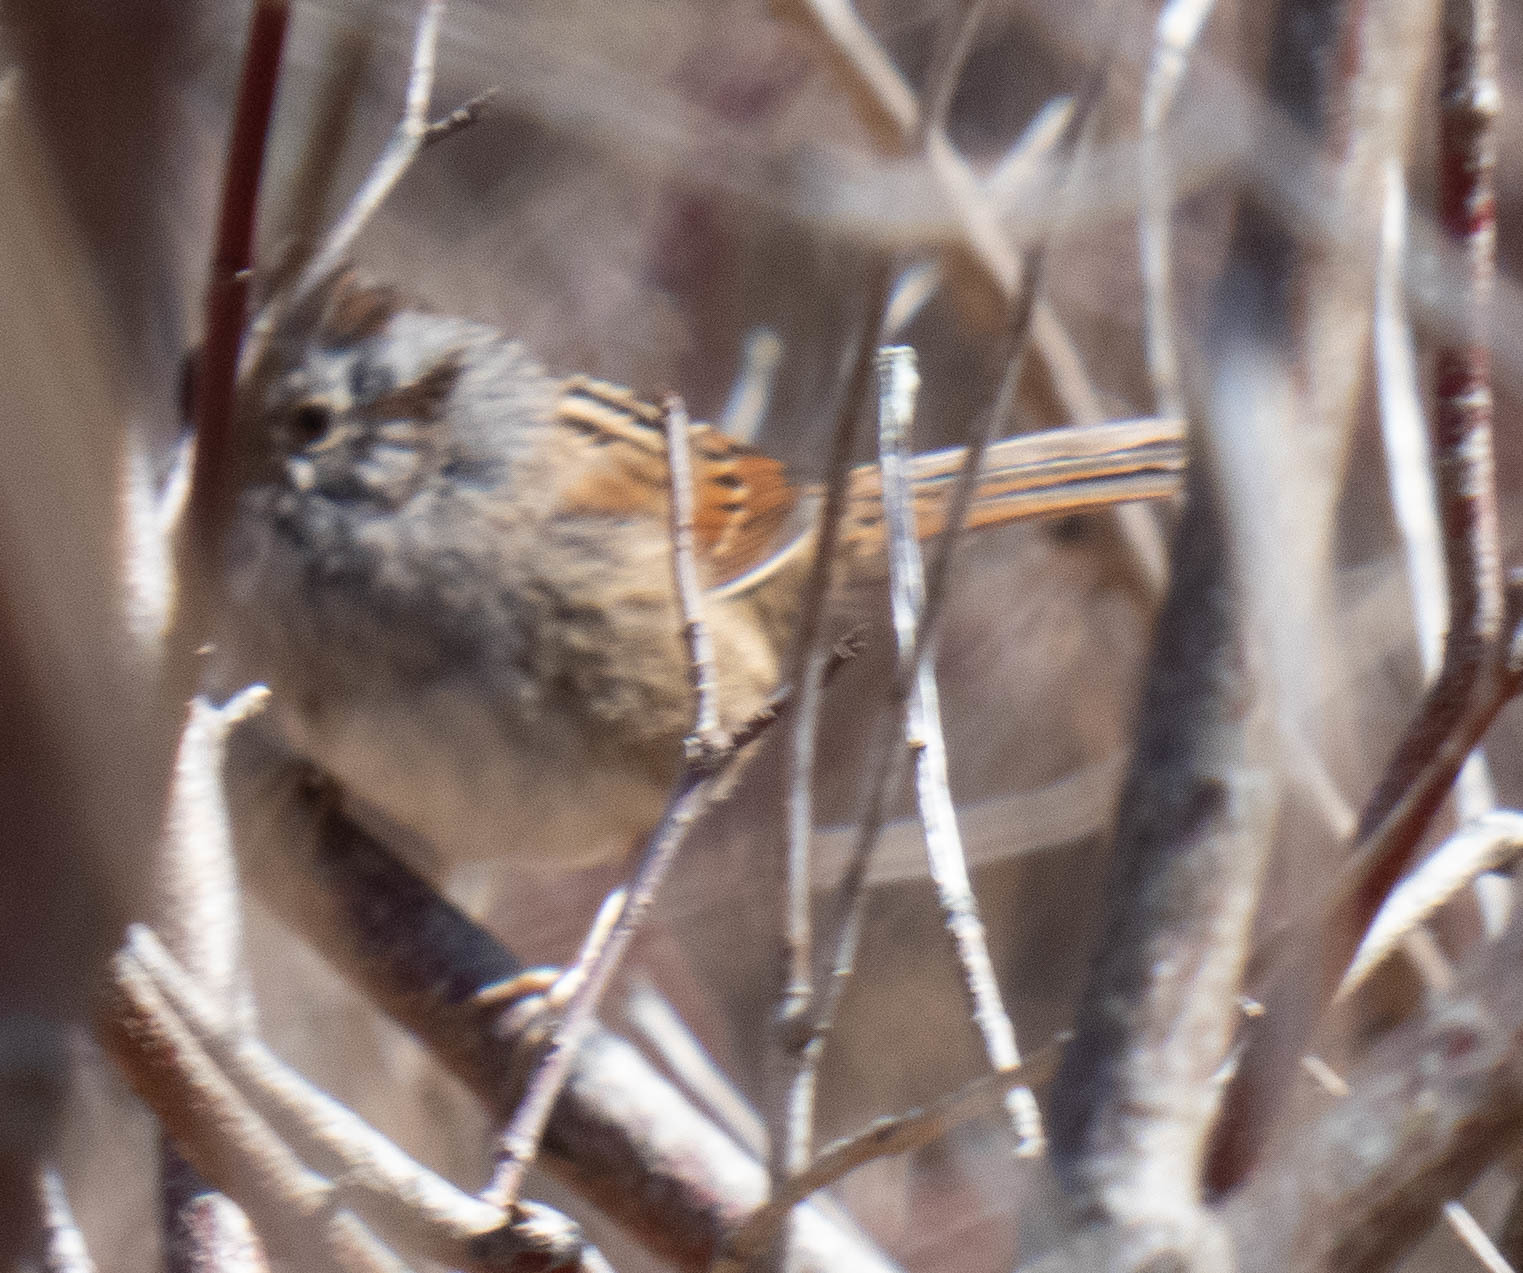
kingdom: Animalia
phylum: Chordata
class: Aves
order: Passeriformes
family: Passerellidae
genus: Melospiza
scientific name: Melospiza georgiana
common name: Swamp sparrow
